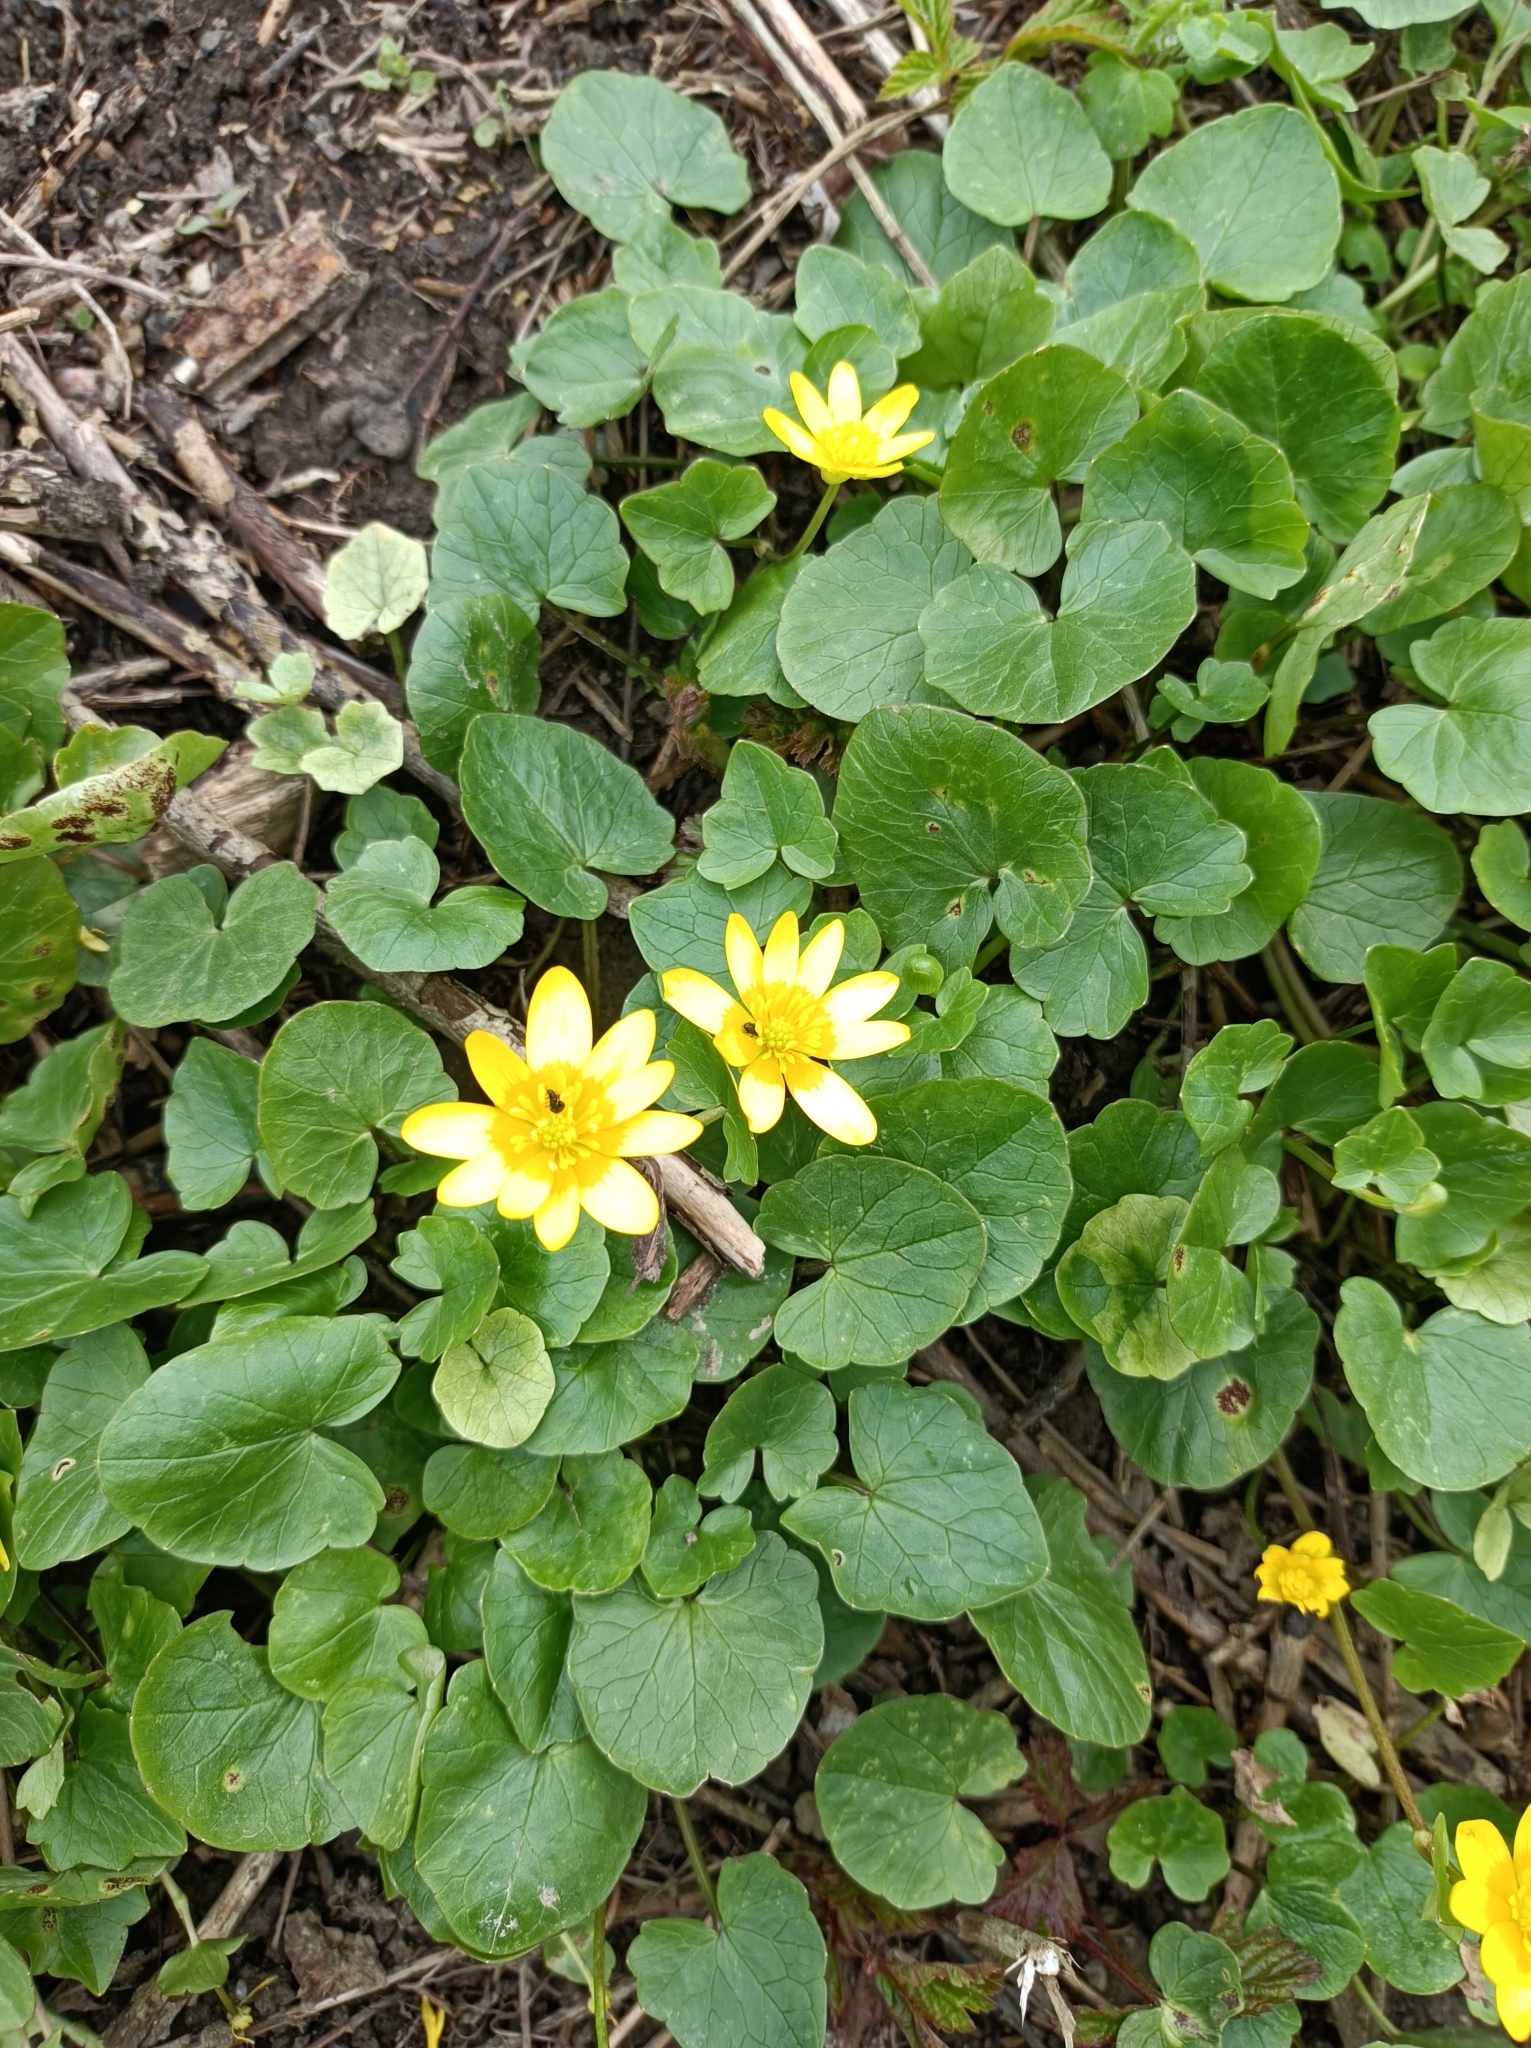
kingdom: Plantae
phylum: Tracheophyta
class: Magnoliopsida
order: Ranunculales
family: Ranunculaceae
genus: Ficaria
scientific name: Ficaria verna
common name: Lesser celandine
